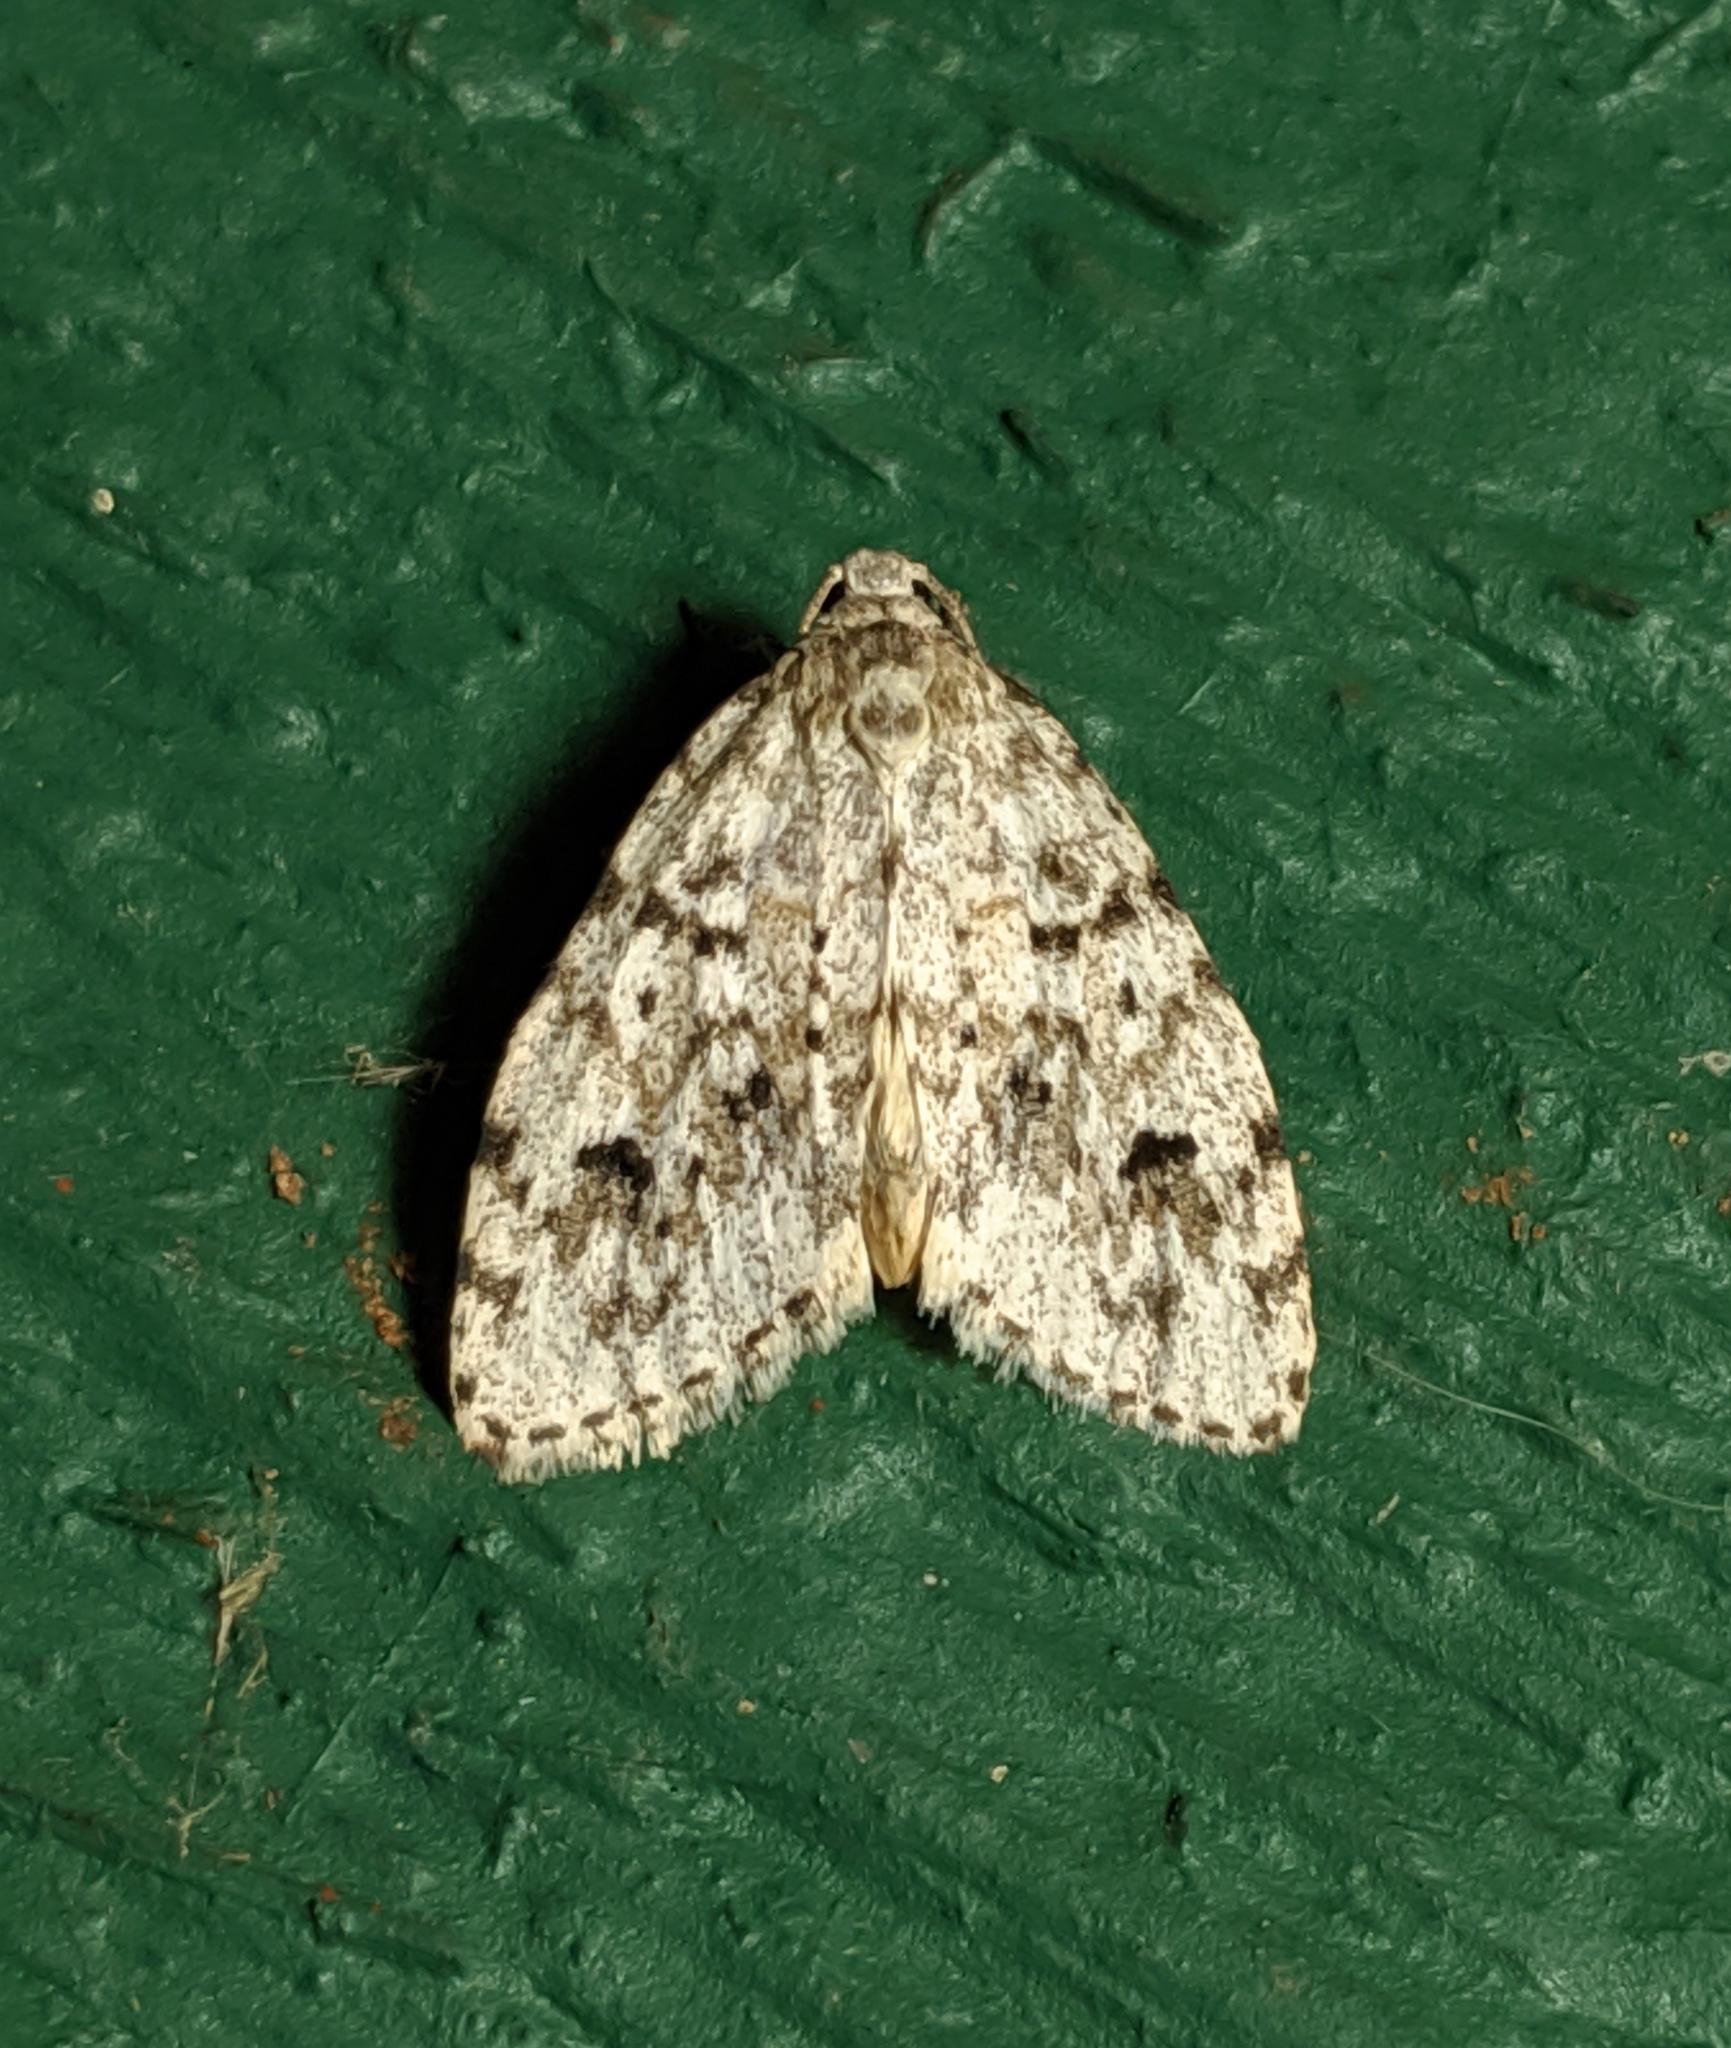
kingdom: Animalia
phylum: Arthropoda
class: Insecta
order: Lepidoptera
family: Erebidae
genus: Clemensia
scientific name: Clemensia umbrata
